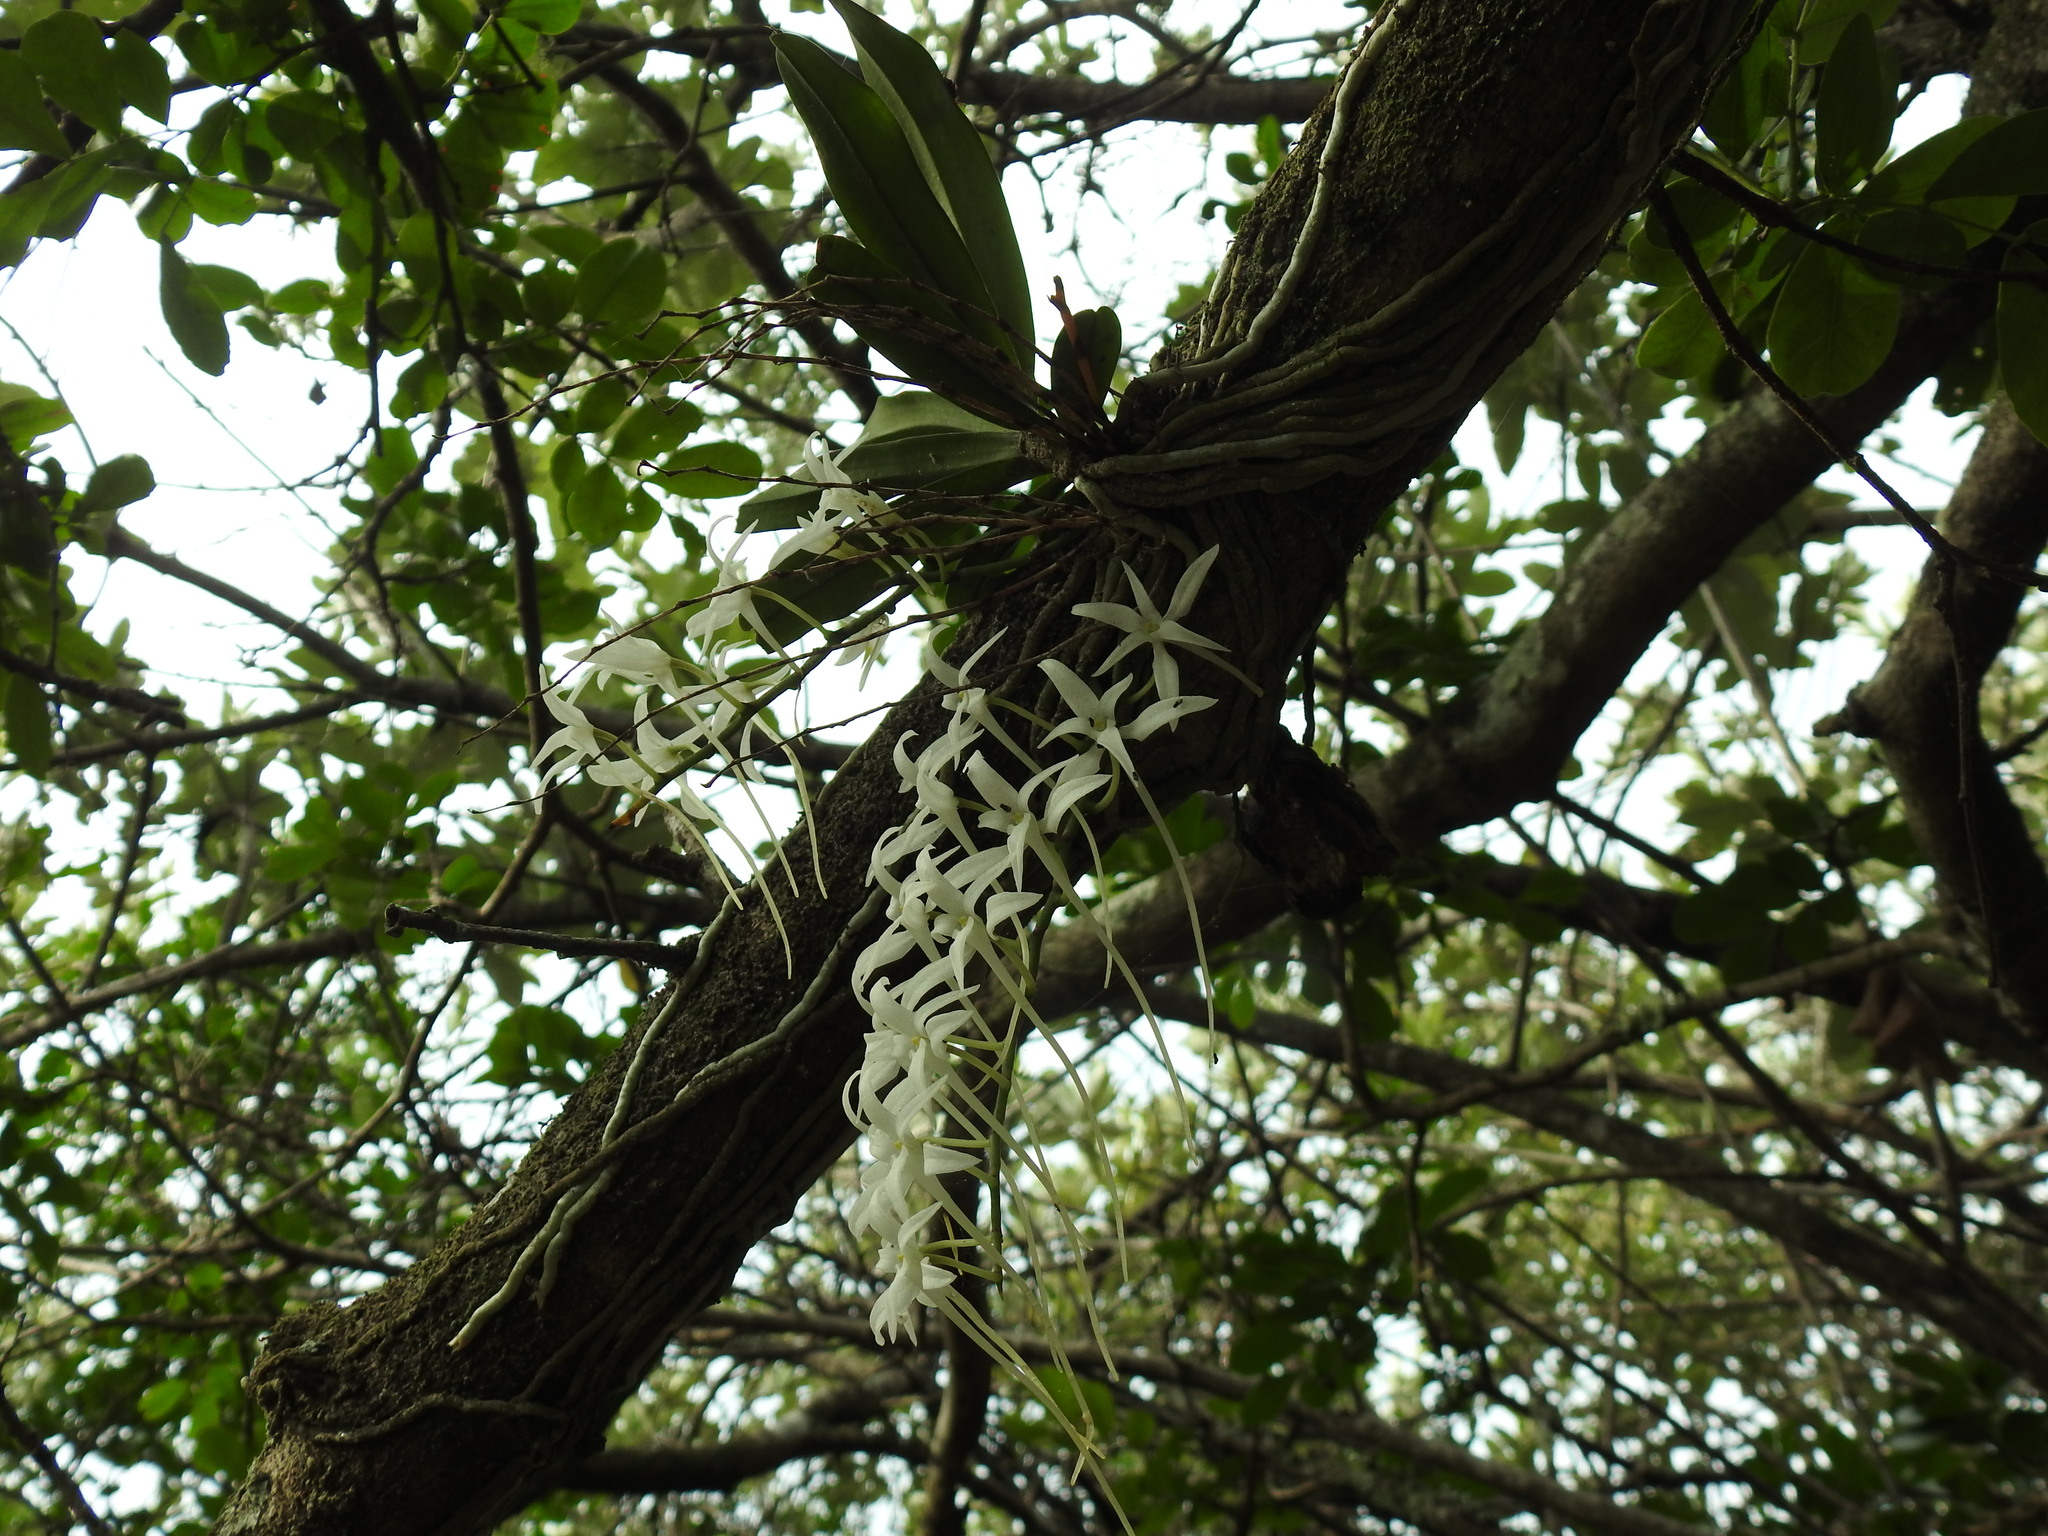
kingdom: Plantae
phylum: Tracheophyta
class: Liliopsida
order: Asparagales
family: Orchidaceae
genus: Mystacidium
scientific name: Mystacidium capense
